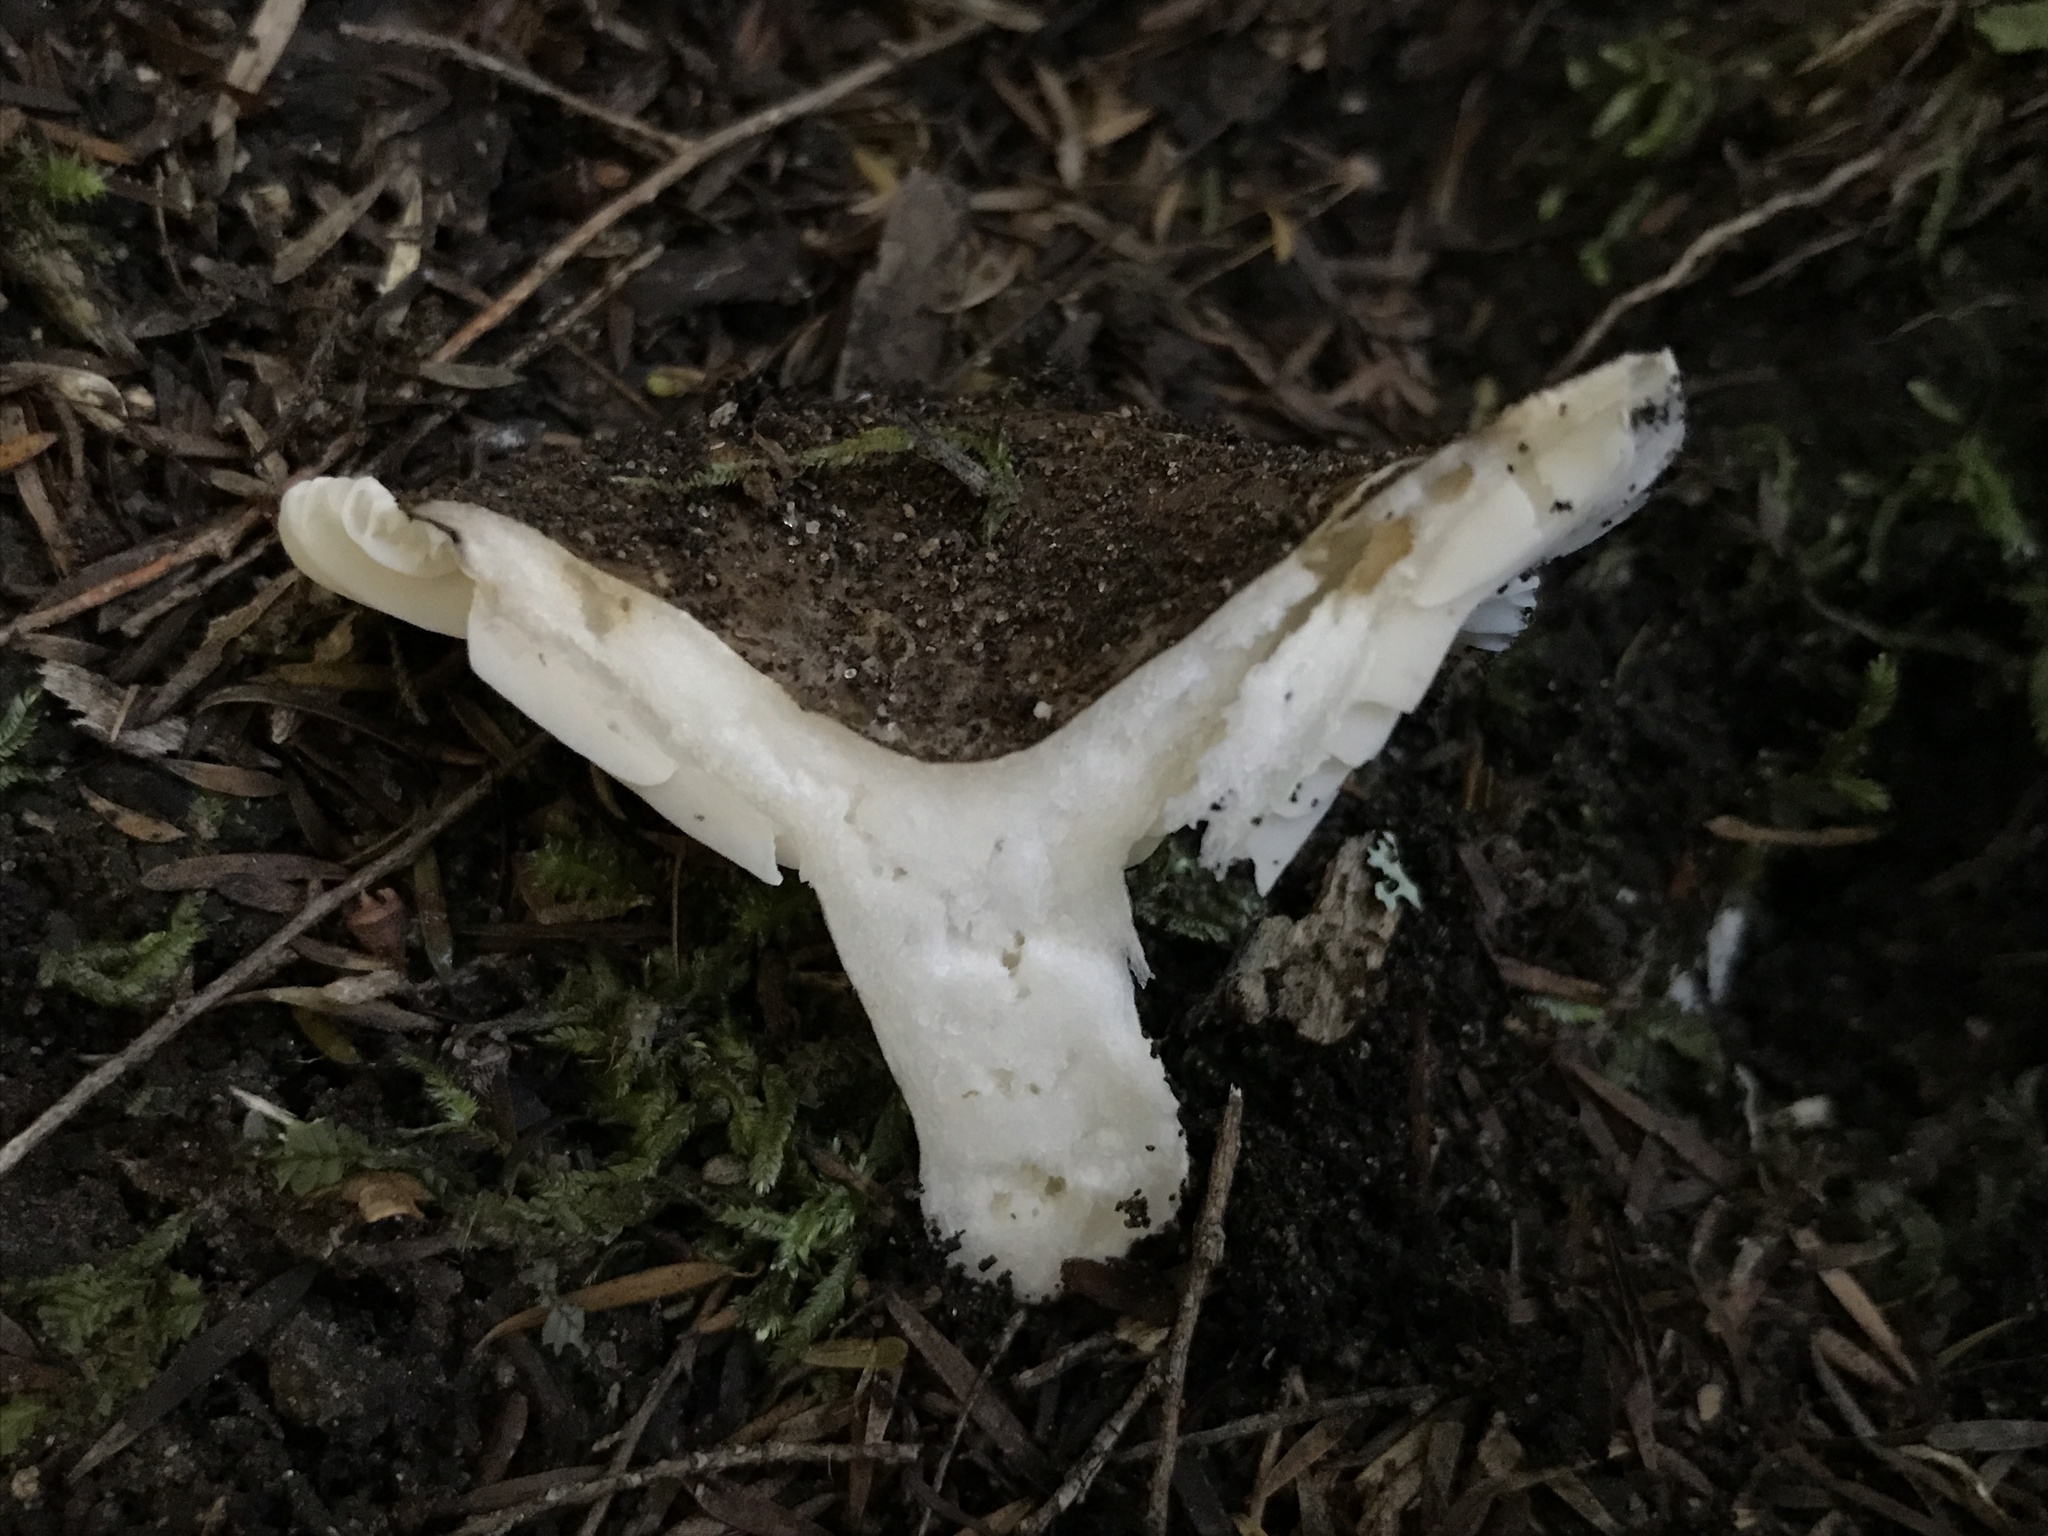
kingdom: Fungi
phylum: Basidiomycota
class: Agaricomycetes
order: Russulales
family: Russulaceae
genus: Russula
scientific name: Russula griseobrunnea
